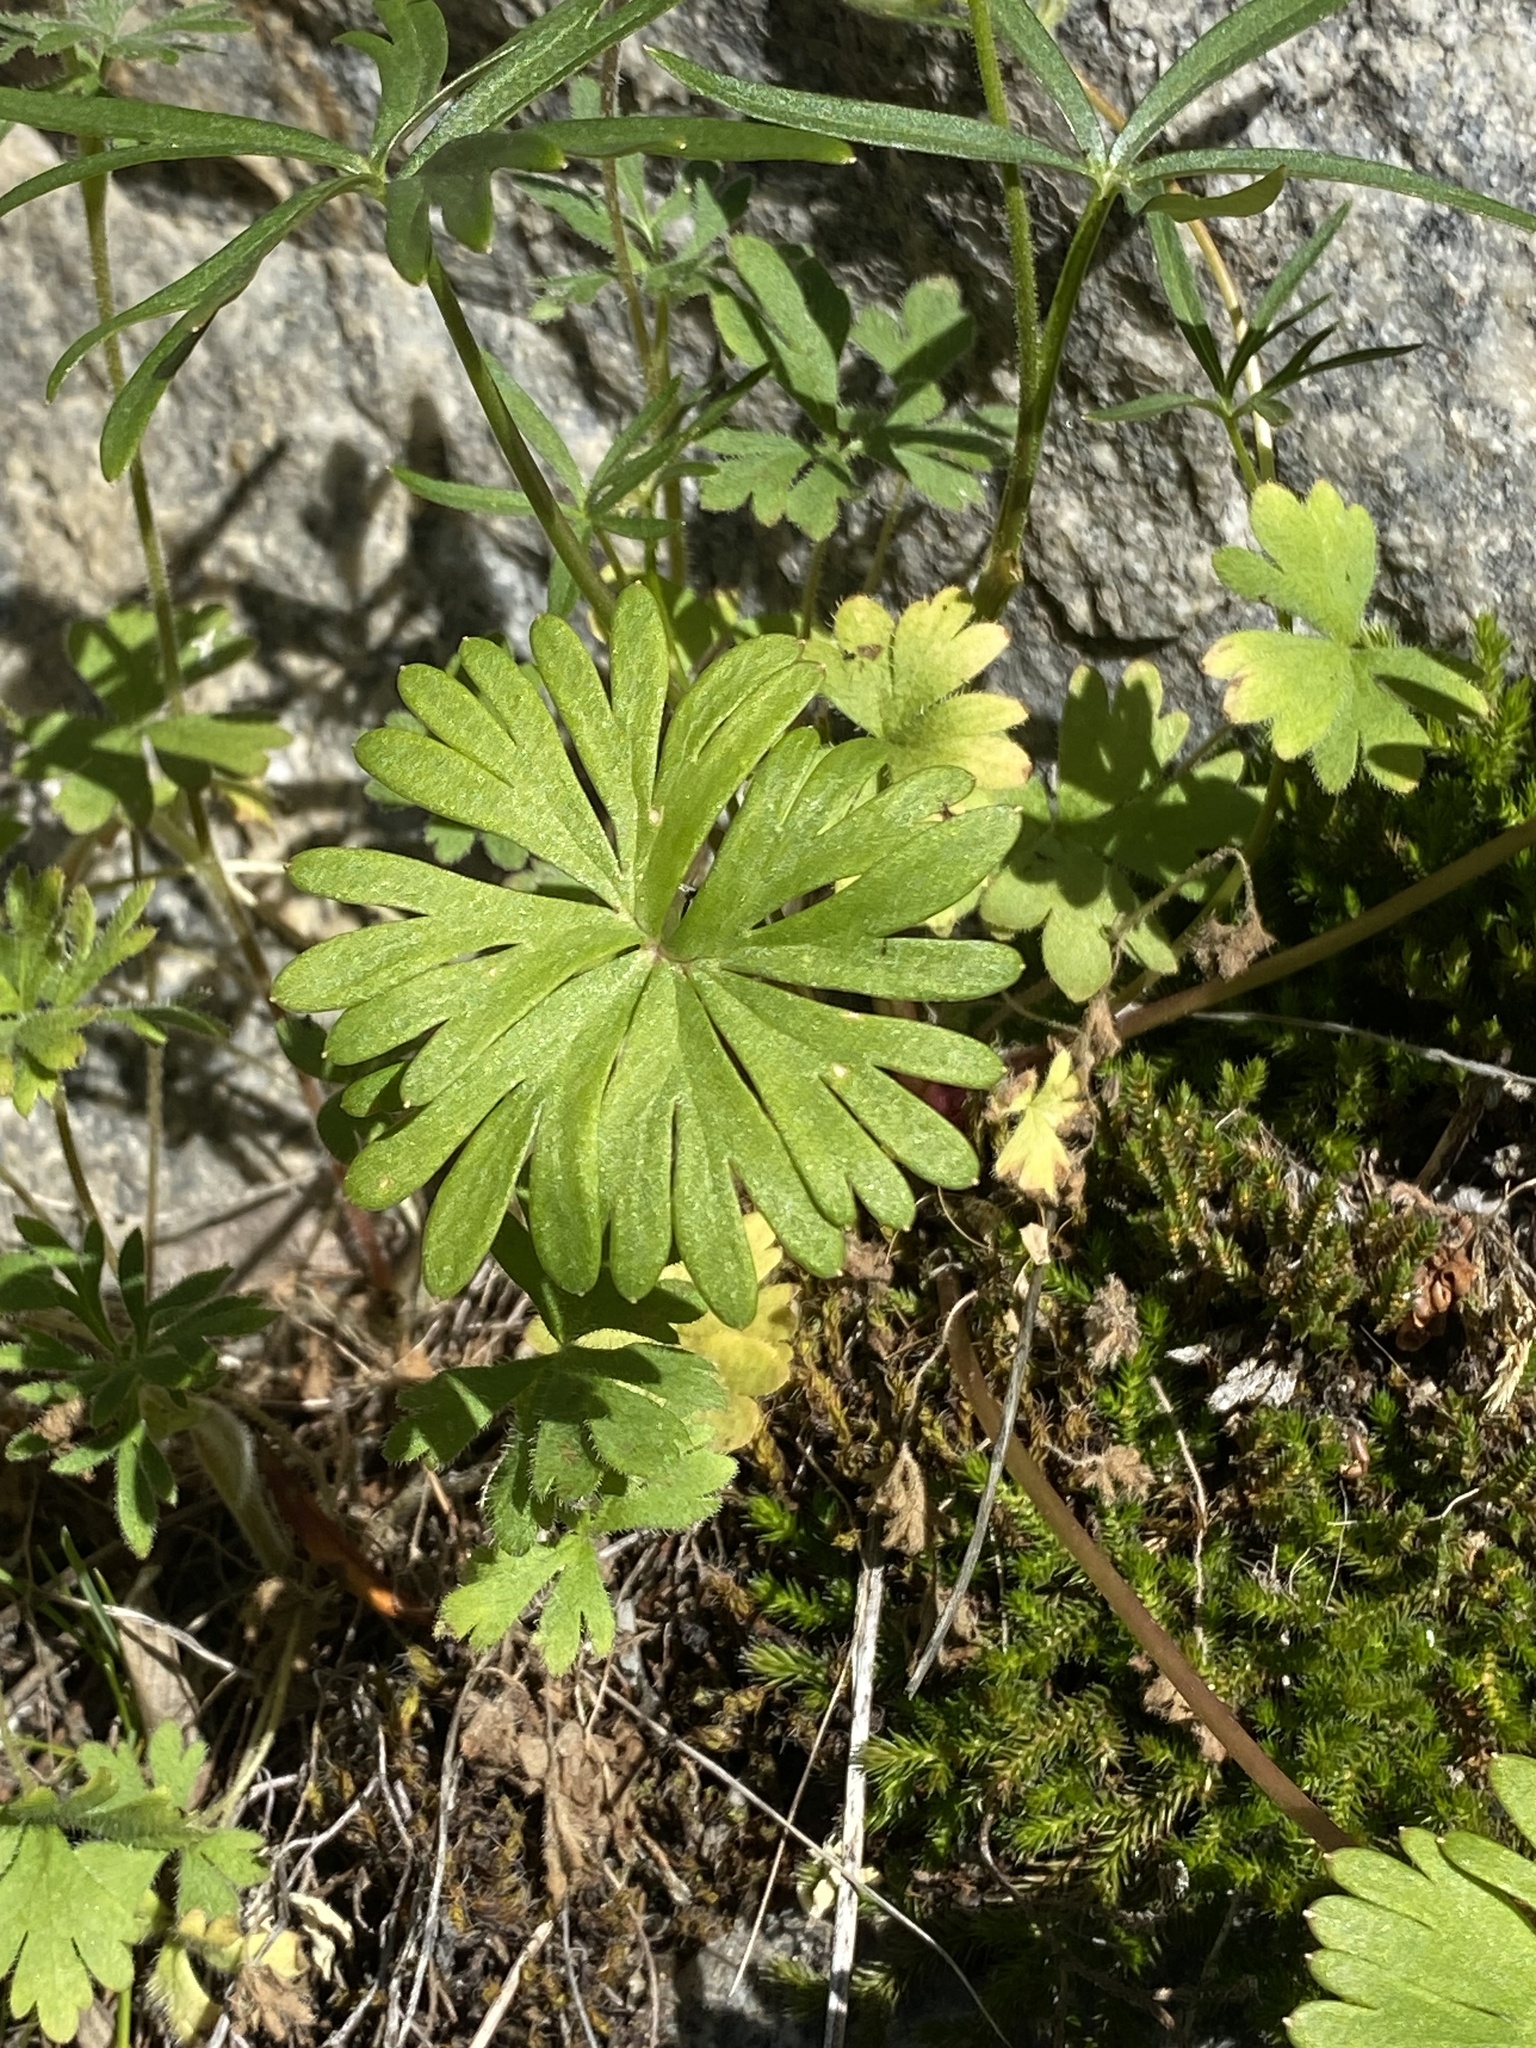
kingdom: Plantae
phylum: Tracheophyta
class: Magnoliopsida
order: Ranunculales
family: Ranunculaceae
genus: Delphinium
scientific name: Delphinium nuttallianum
